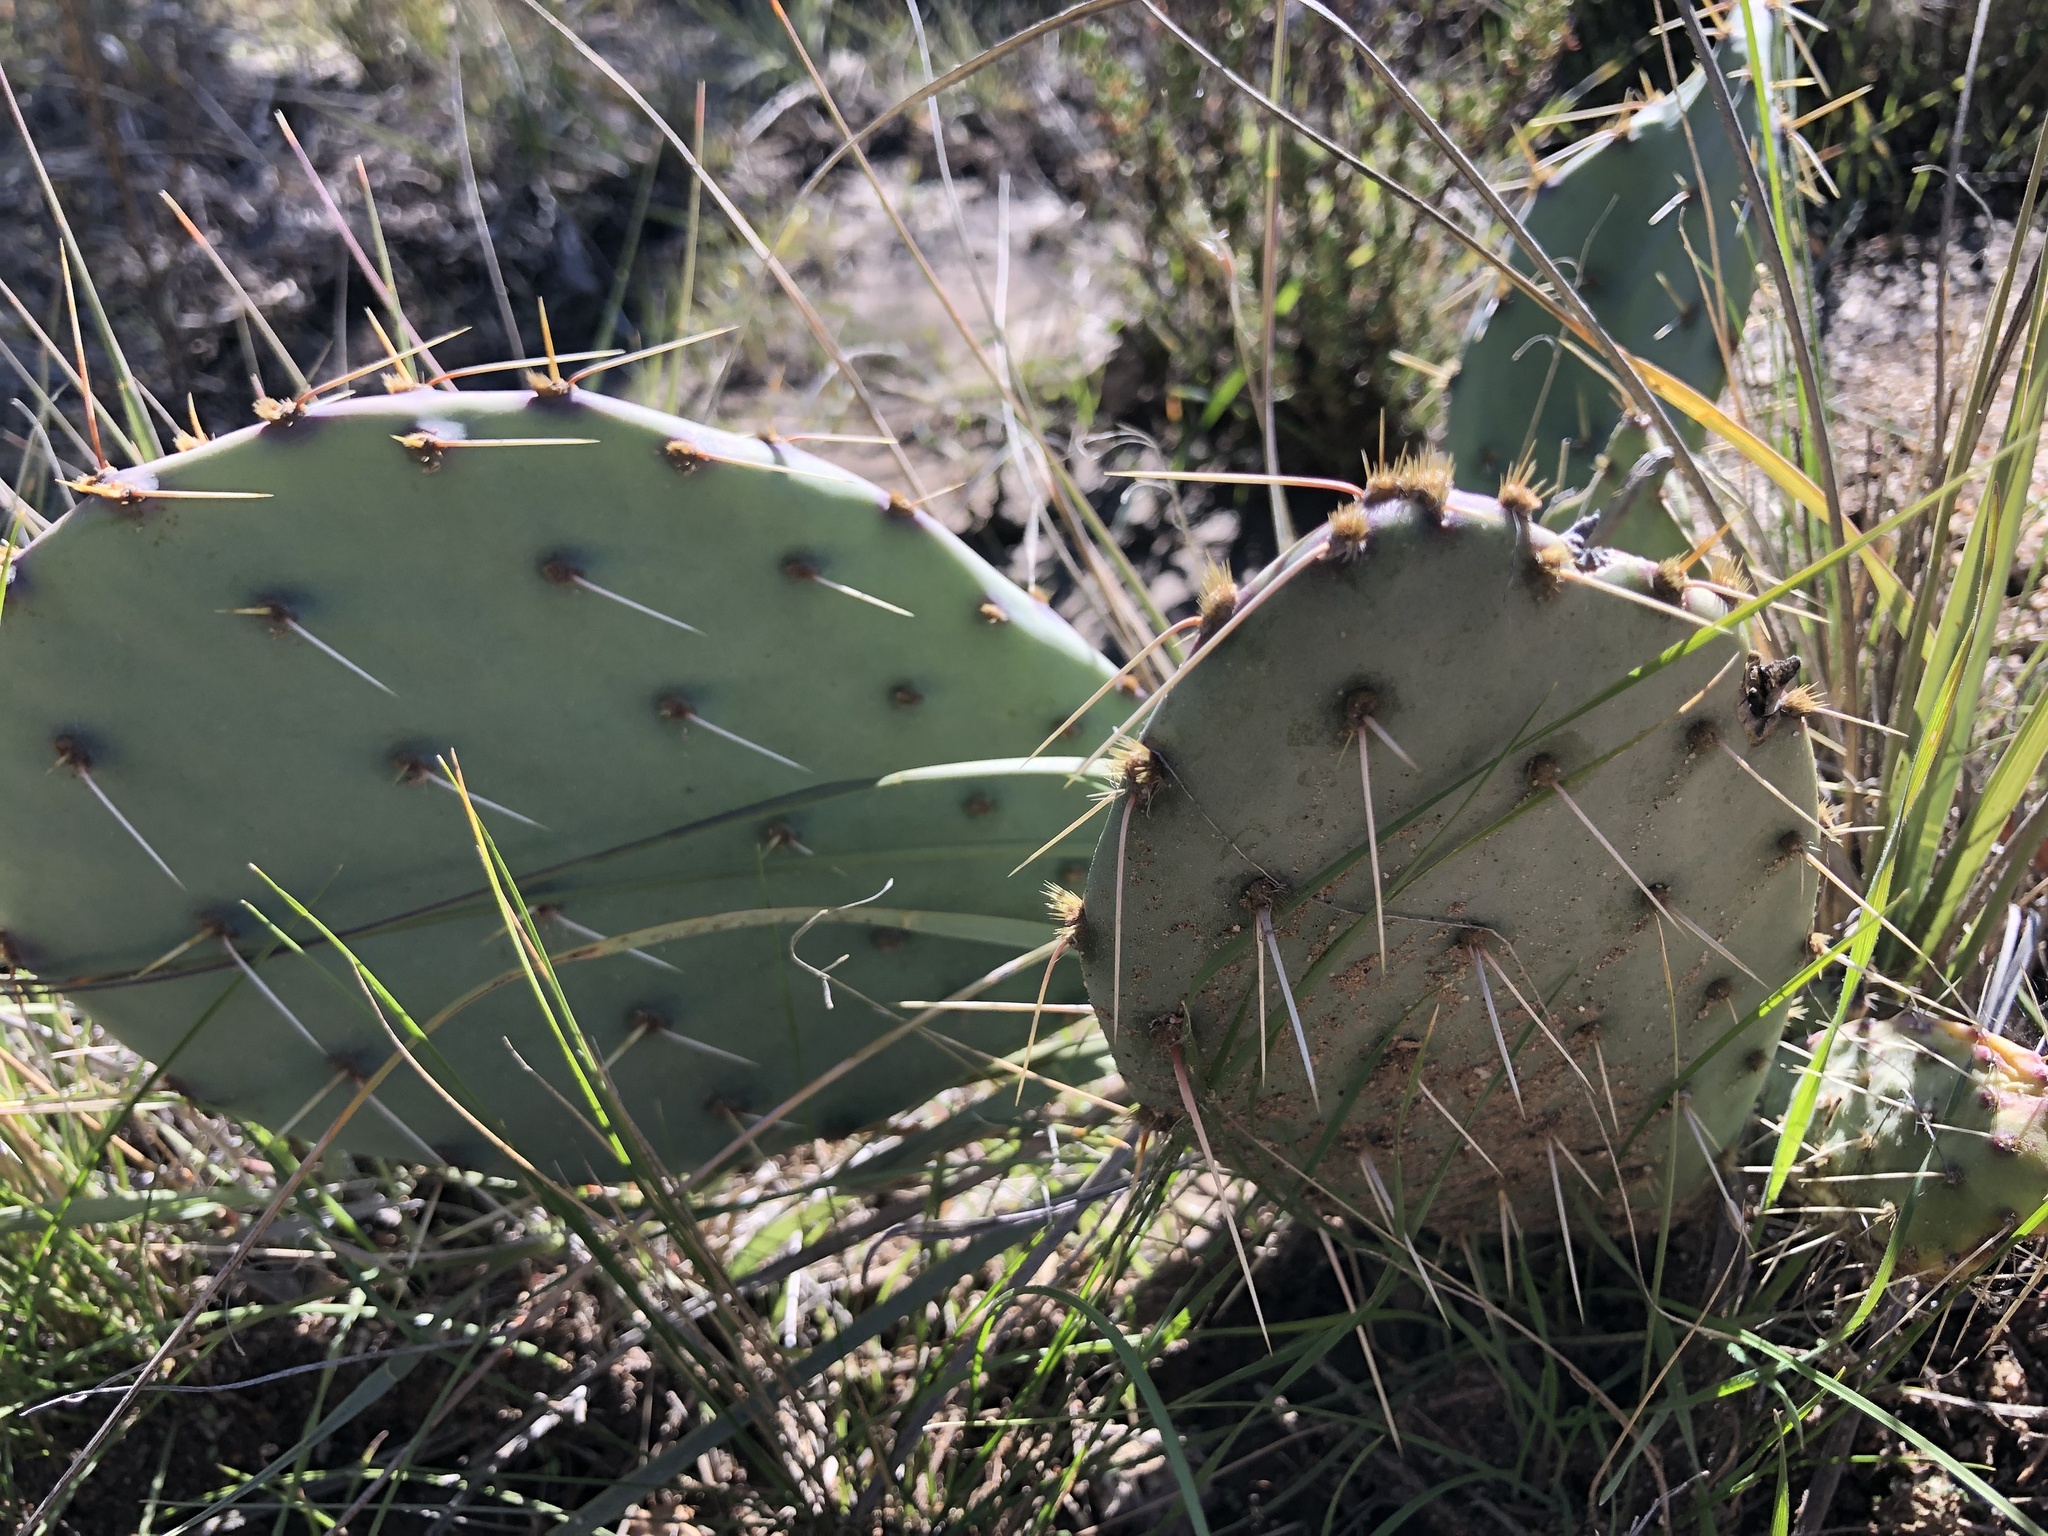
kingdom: Plantae
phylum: Tracheophyta
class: Magnoliopsida
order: Caryophyllales
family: Cactaceae
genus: Opuntia
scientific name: Opuntia phaeacantha
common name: New mexico prickly-pear
